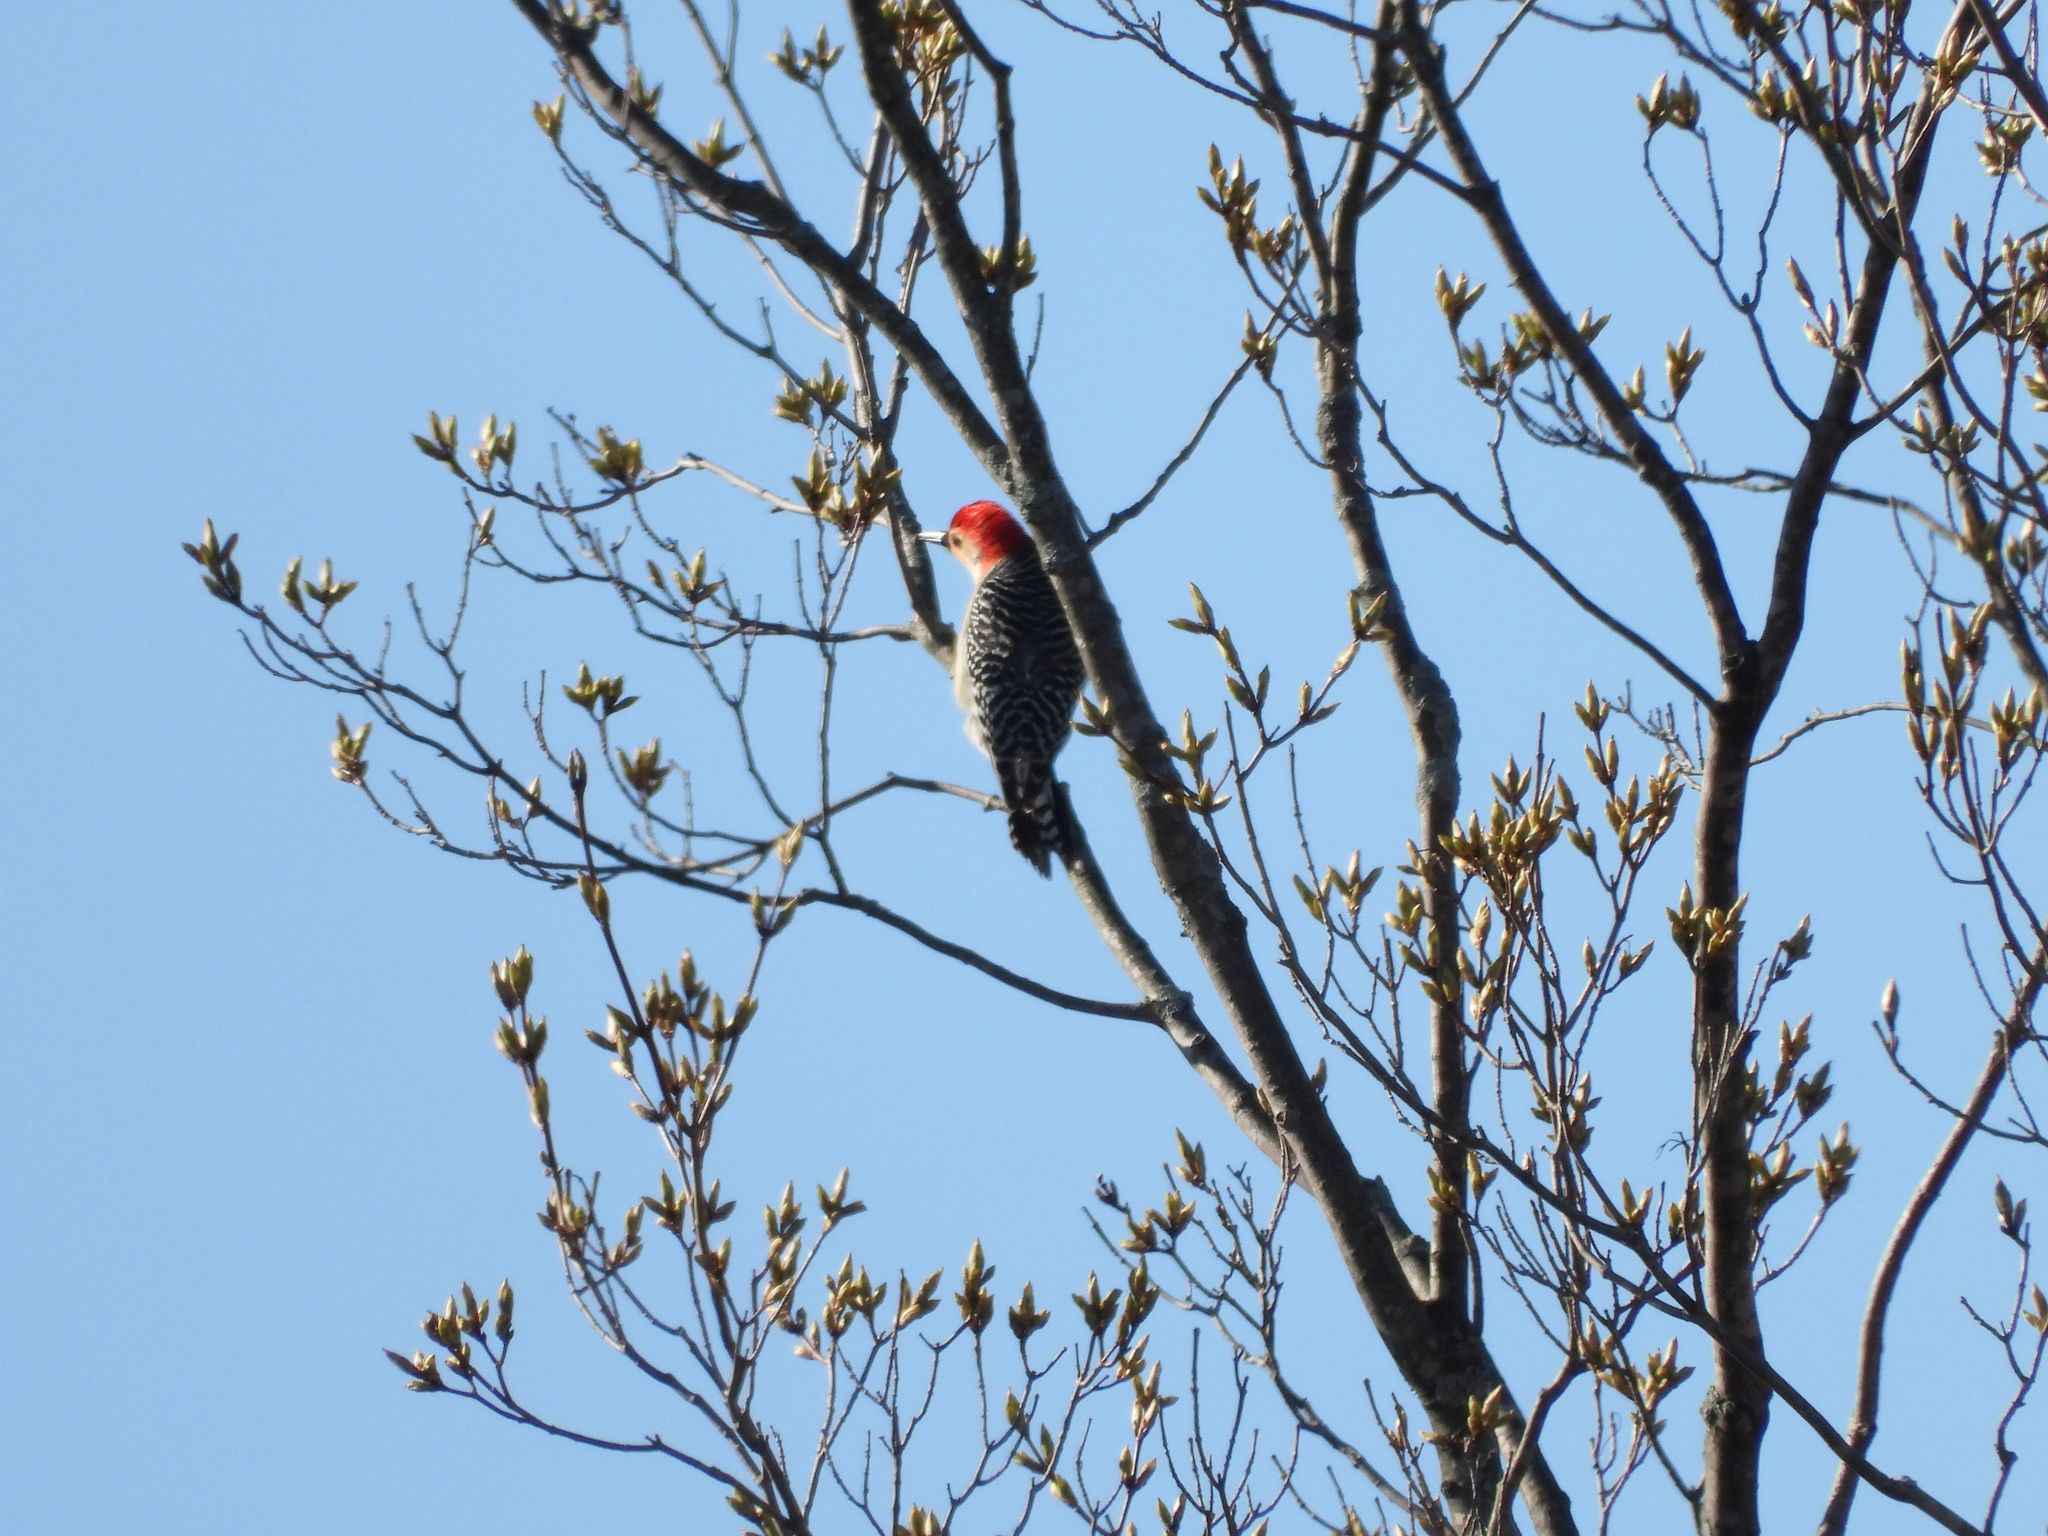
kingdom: Animalia
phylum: Chordata
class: Aves
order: Piciformes
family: Picidae
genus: Melanerpes
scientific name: Melanerpes carolinus
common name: Red-bellied woodpecker
